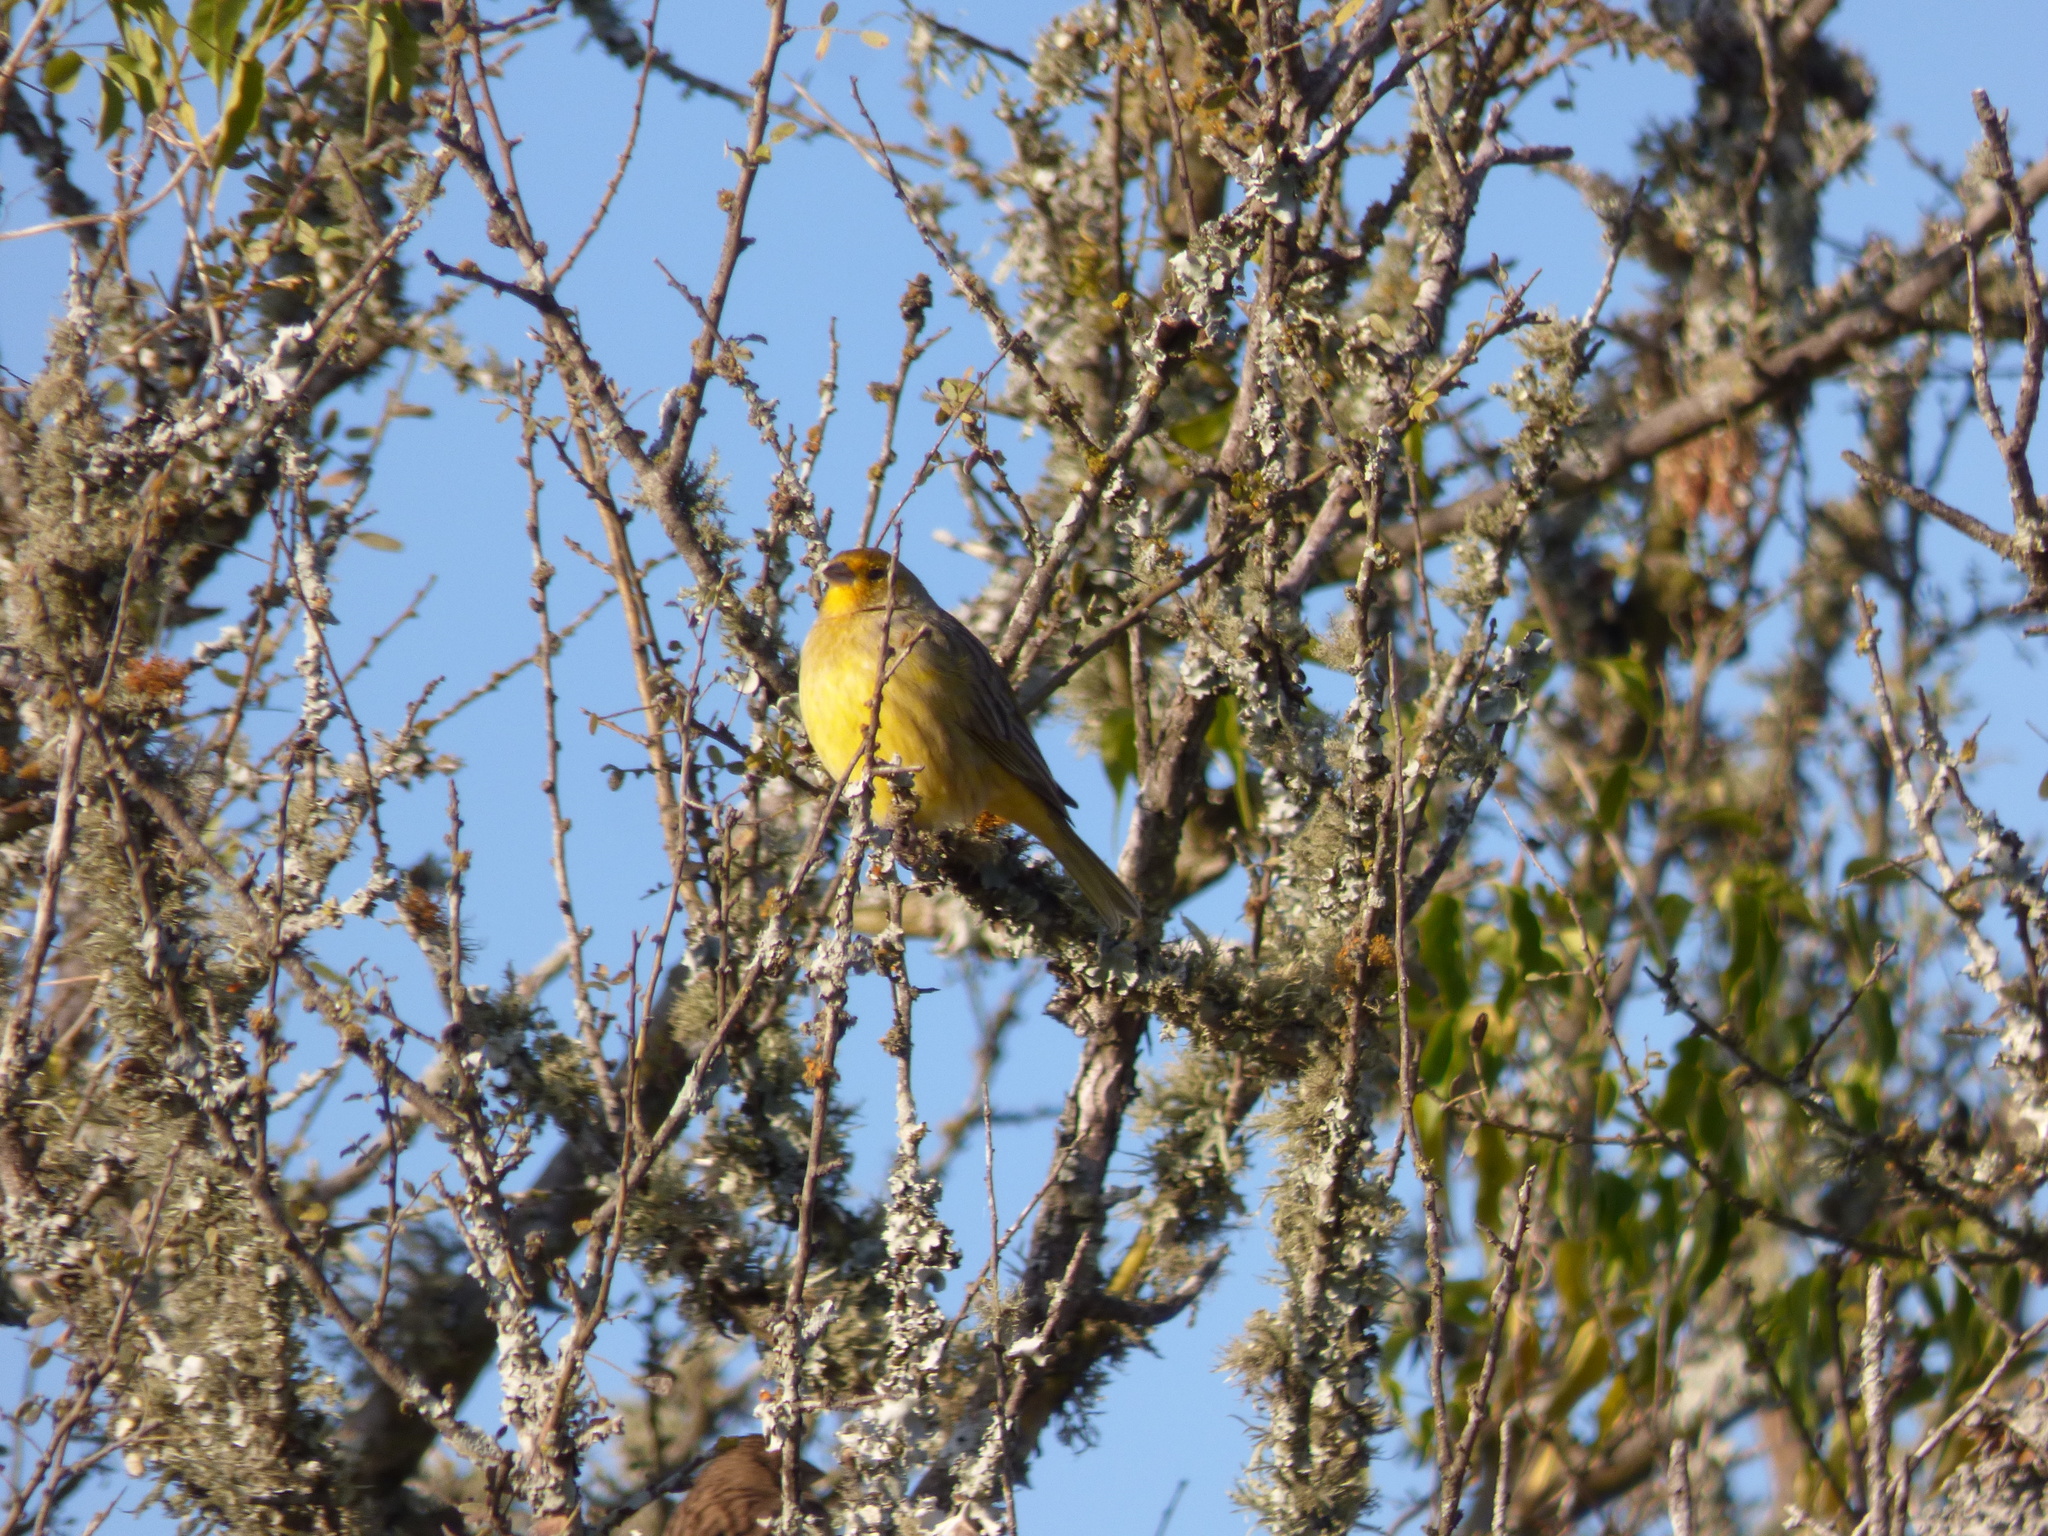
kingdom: Animalia
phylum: Chordata
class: Aves
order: Passeriformes
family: Thraupidae
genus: Sicalis
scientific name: Sicalis flaveola
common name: Saffron finch
